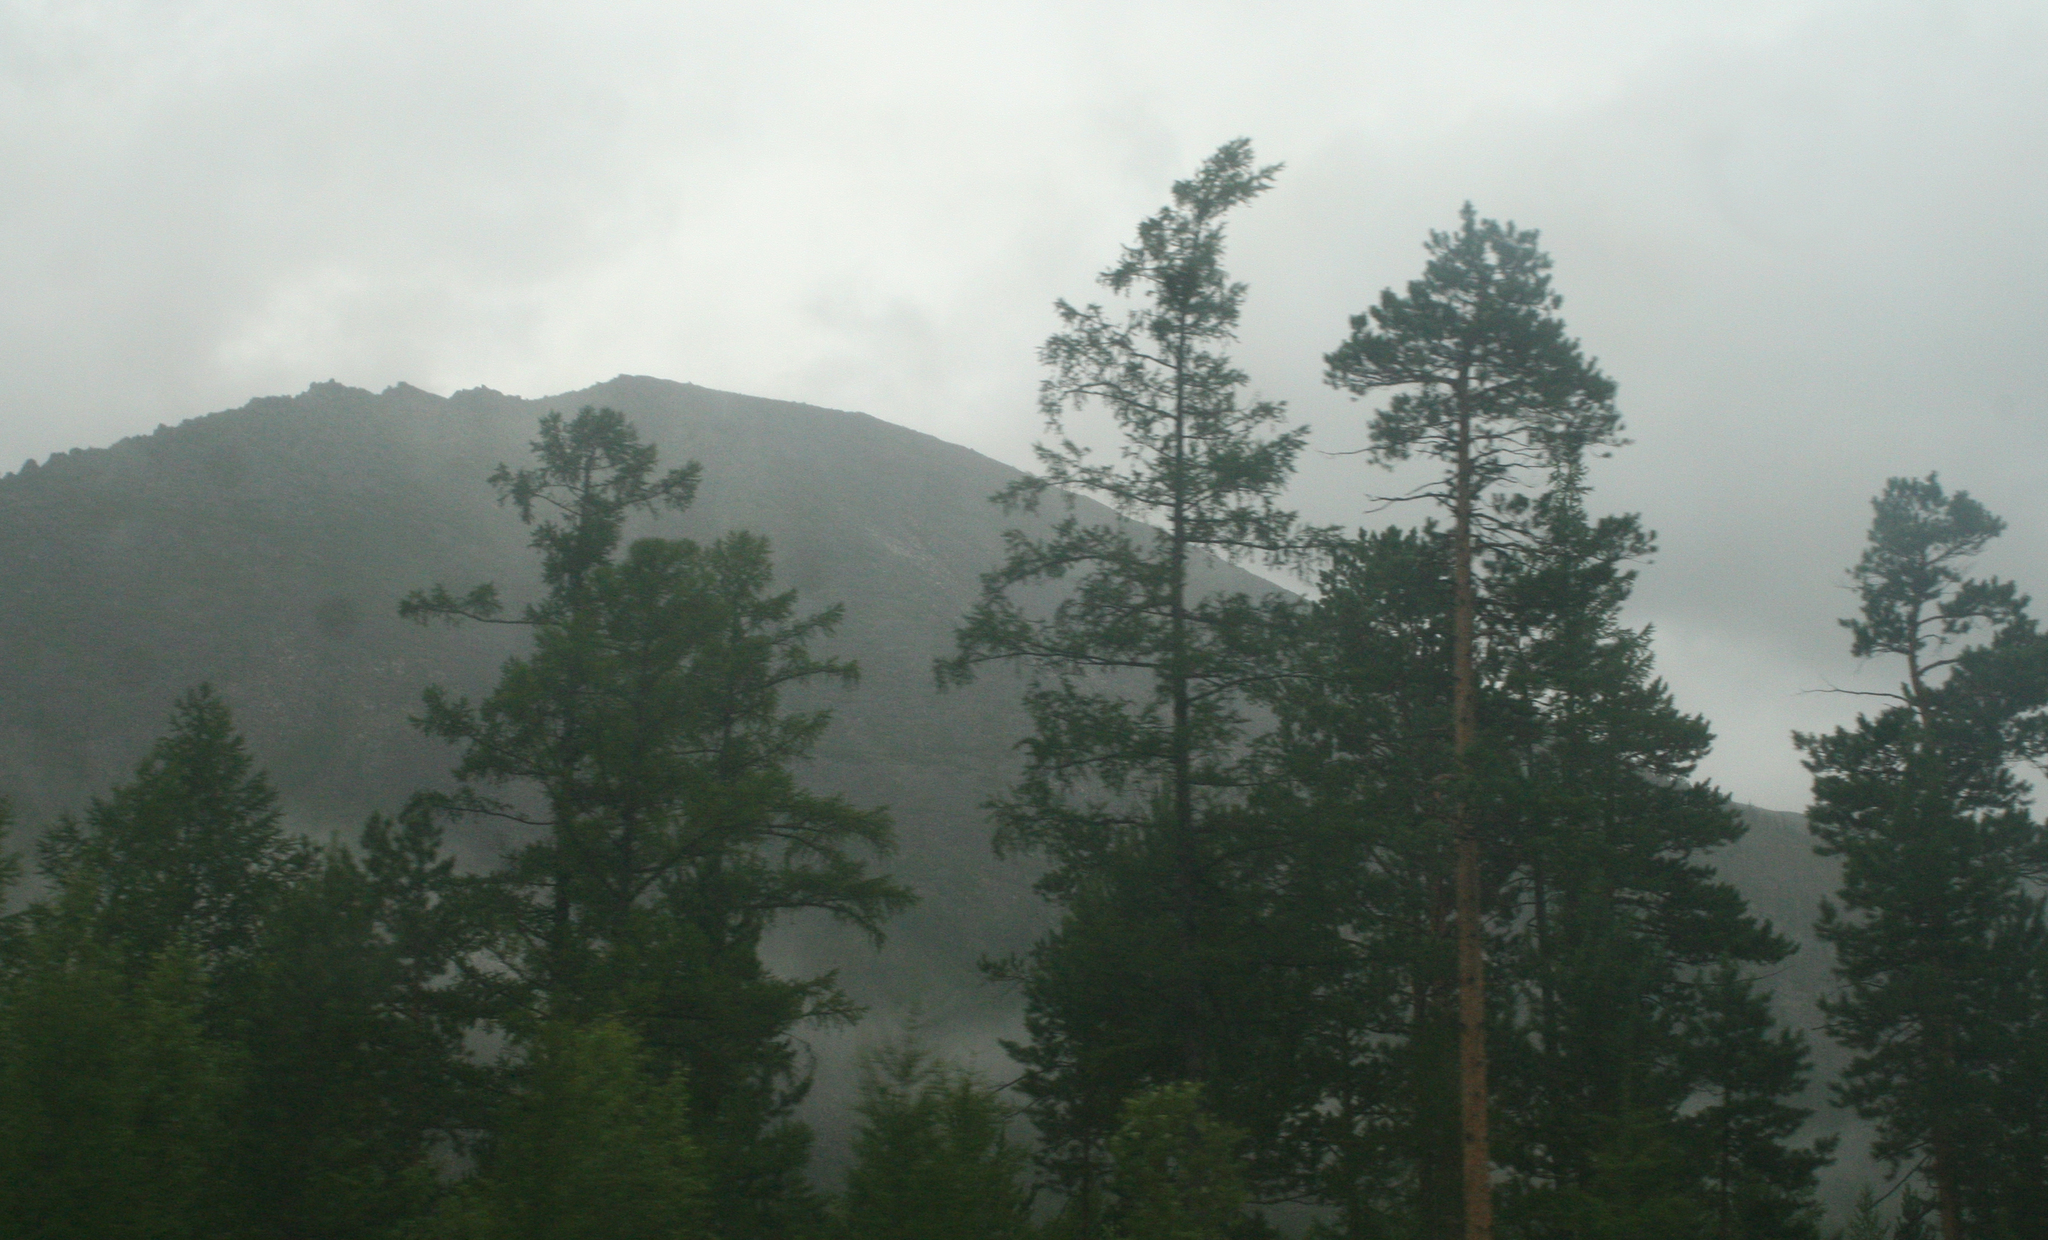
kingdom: Plantae
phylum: Tracheophyta
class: Pinopsida
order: Pinales
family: Pinaceae
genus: Pinus
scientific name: Pinus sylvestris
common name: Scots pine
